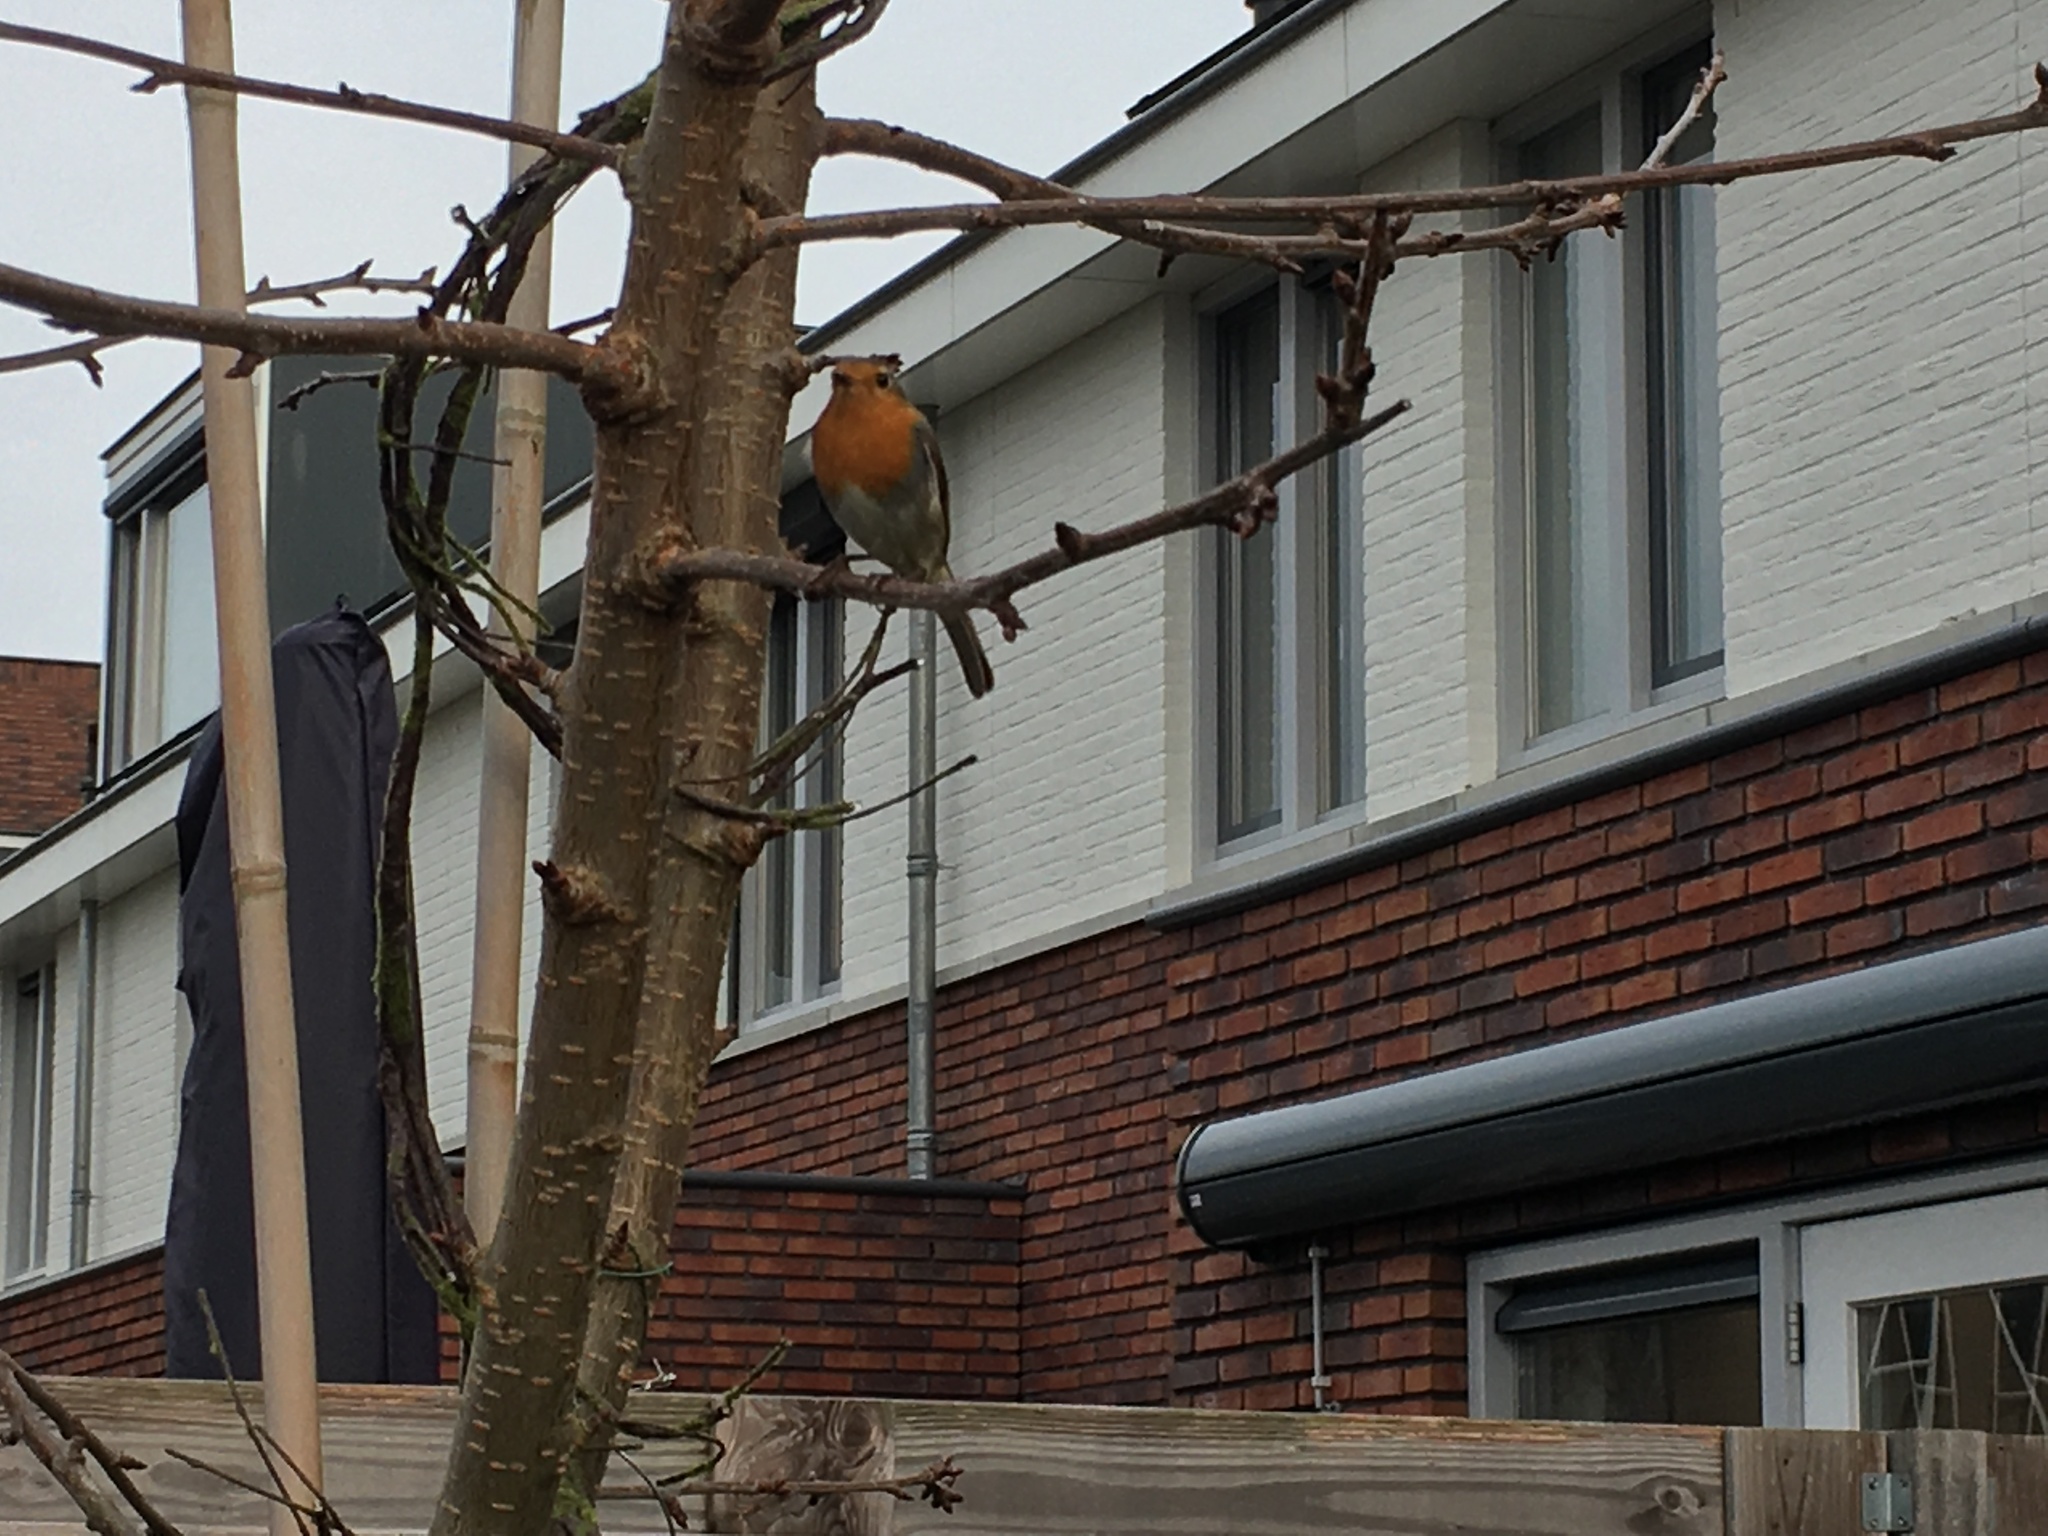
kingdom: Animalia
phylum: Chordata
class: Aves
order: Passeriformes
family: Muscicapidae
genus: Erithacus
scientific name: Erithacus rubecula
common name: European robin
